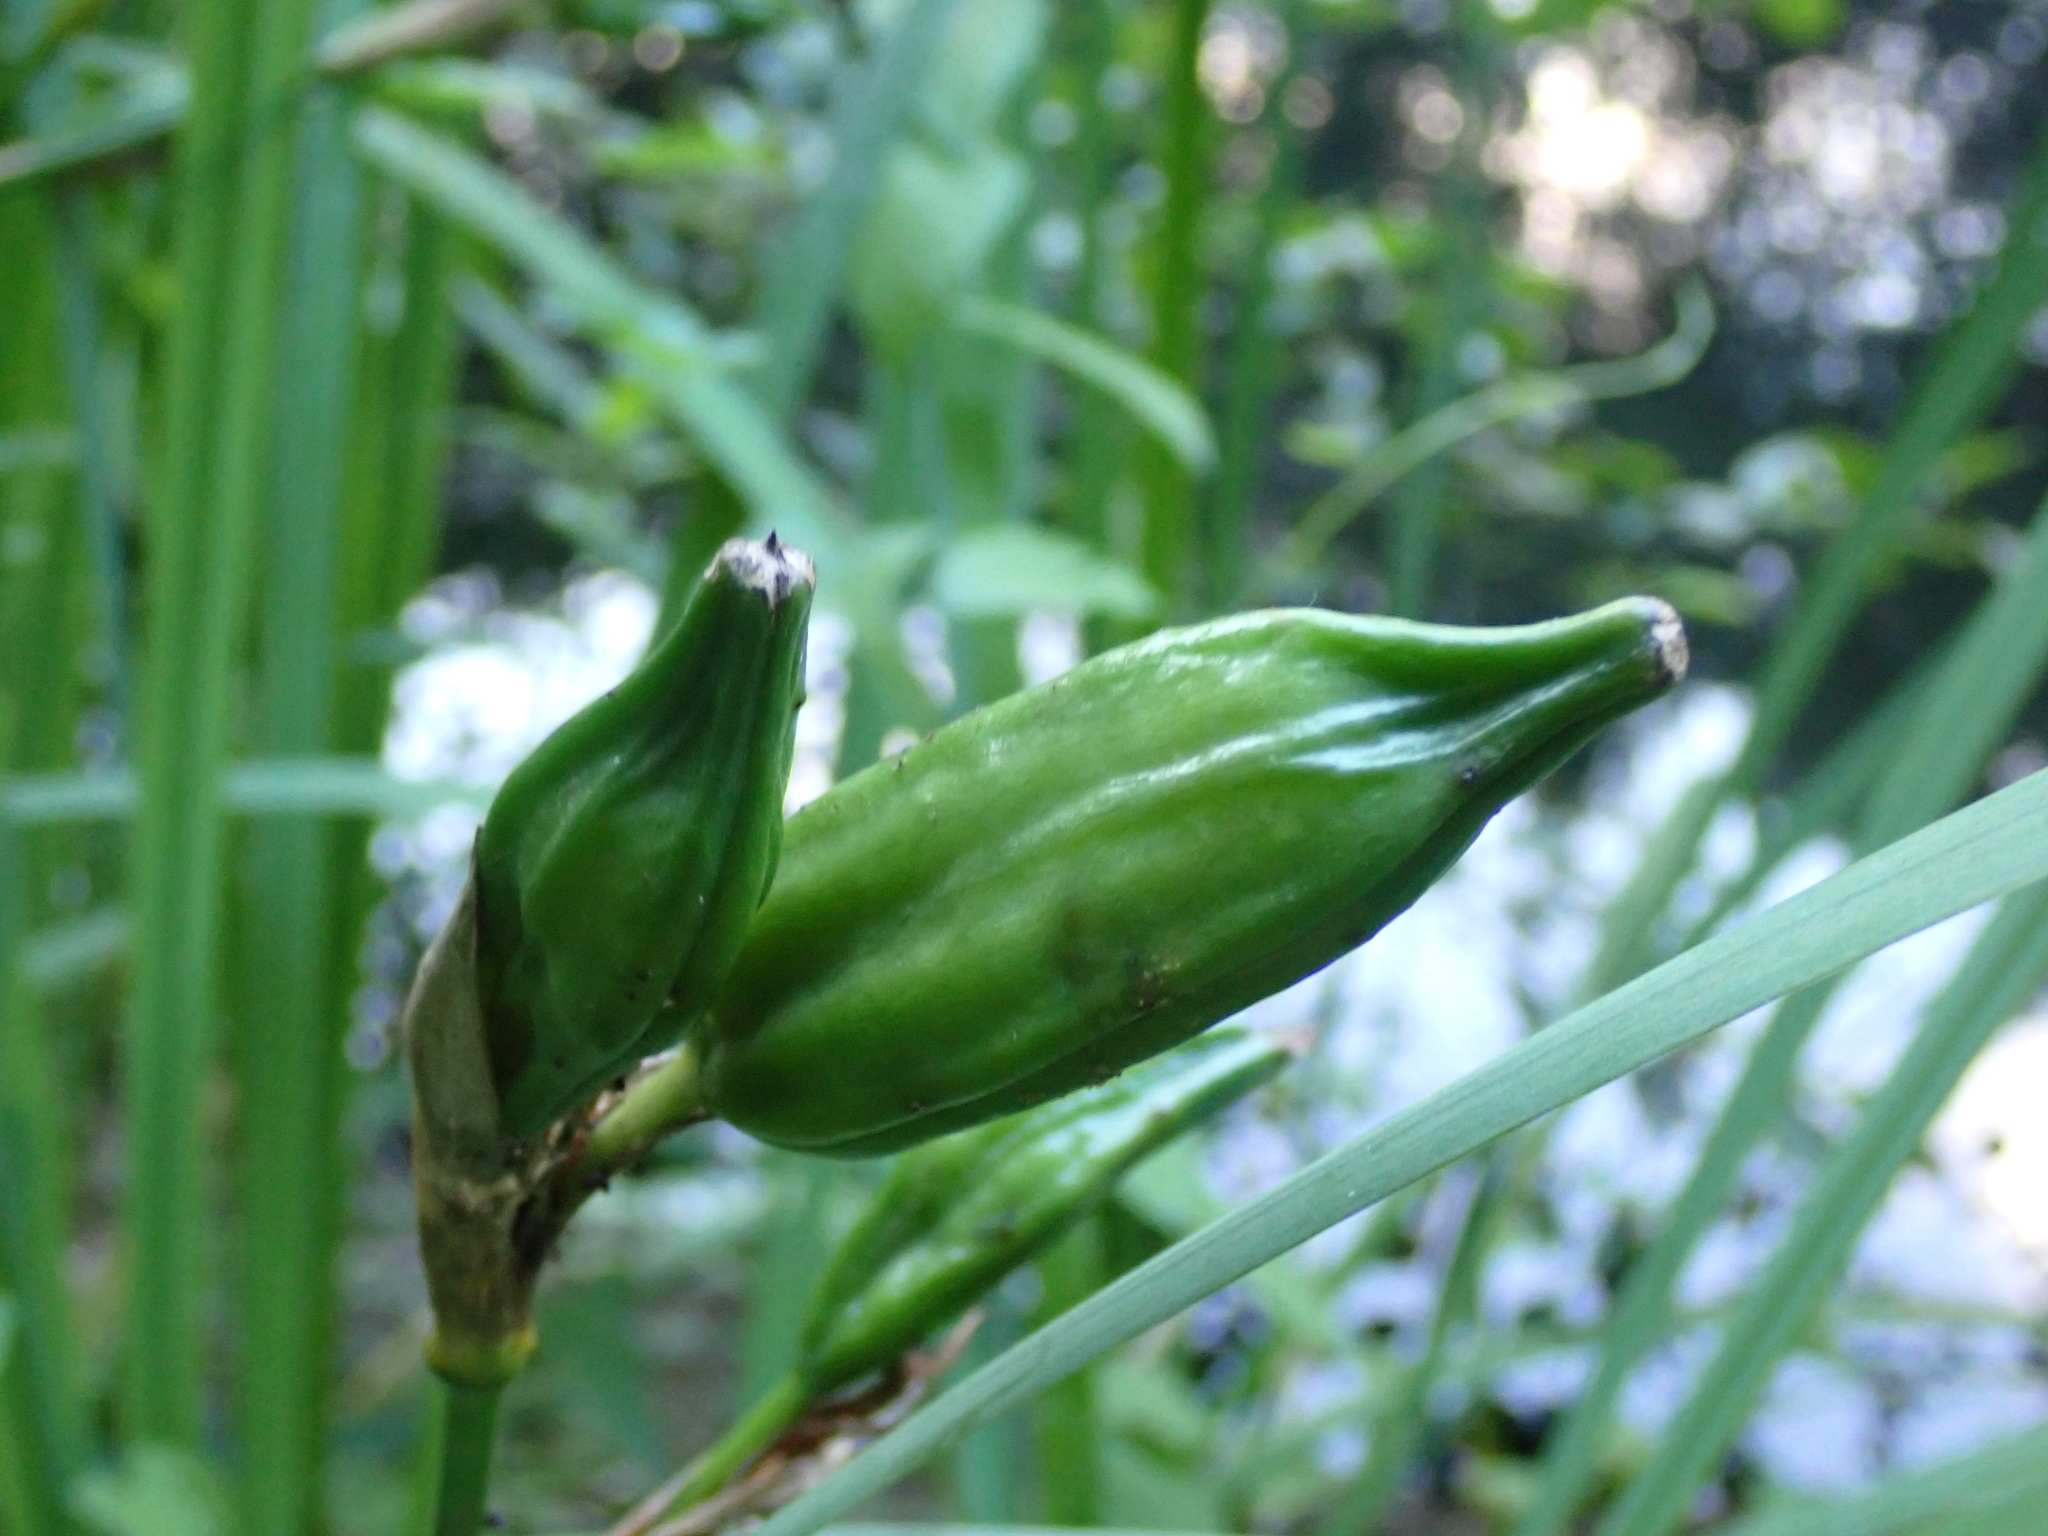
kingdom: Plantae
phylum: Tracheophyta
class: Liliopsida
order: Asparagales
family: Iridaceae
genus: Iris
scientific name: Iris pseudacorus
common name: Yellow flag
